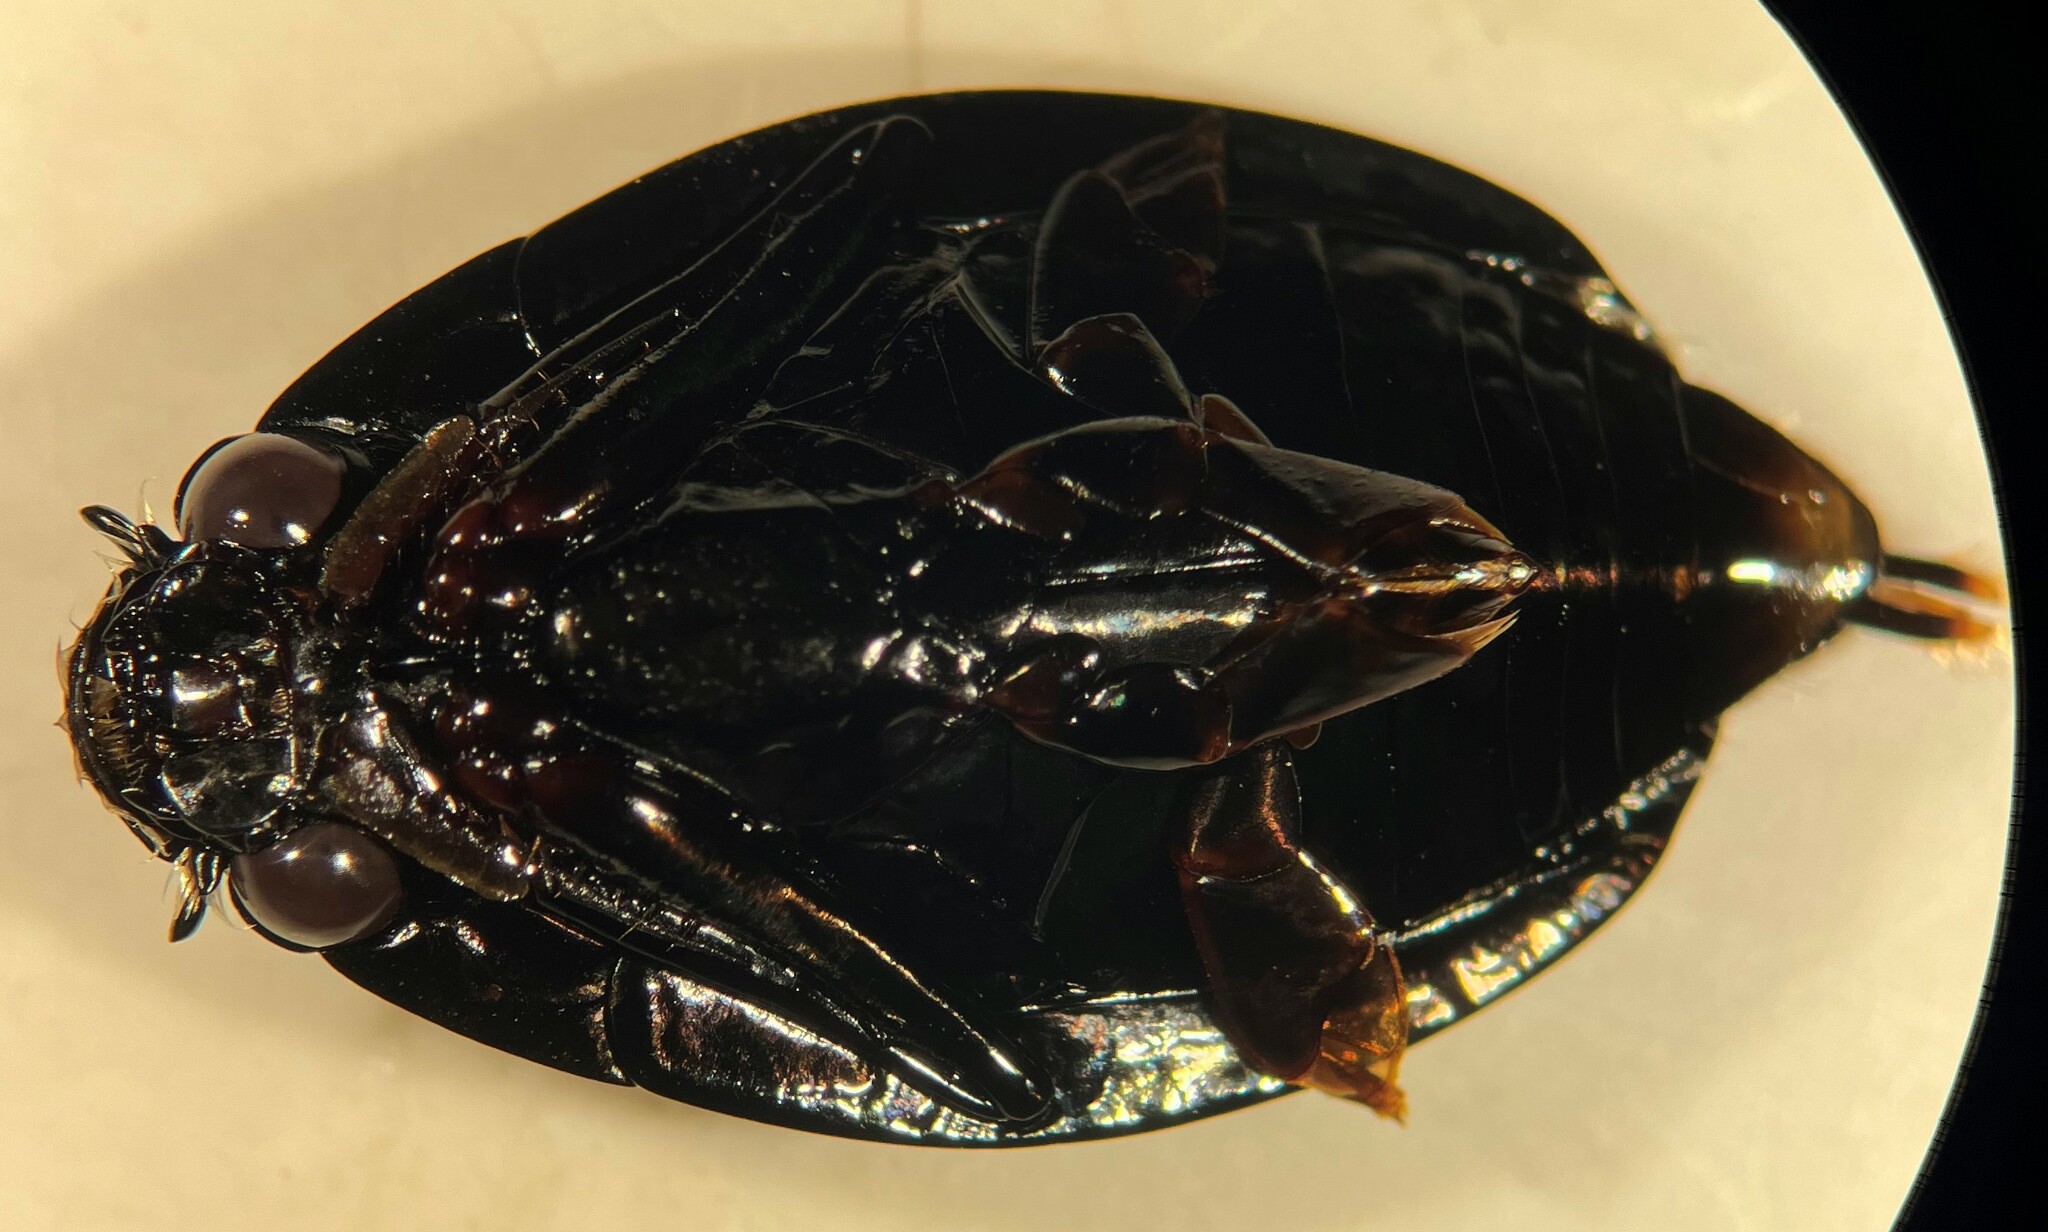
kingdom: Animalia
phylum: Arthropoda
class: Insecta
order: Coleoptera
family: Gyrinidae
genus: Dineutus
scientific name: Dineutus sublineatus
